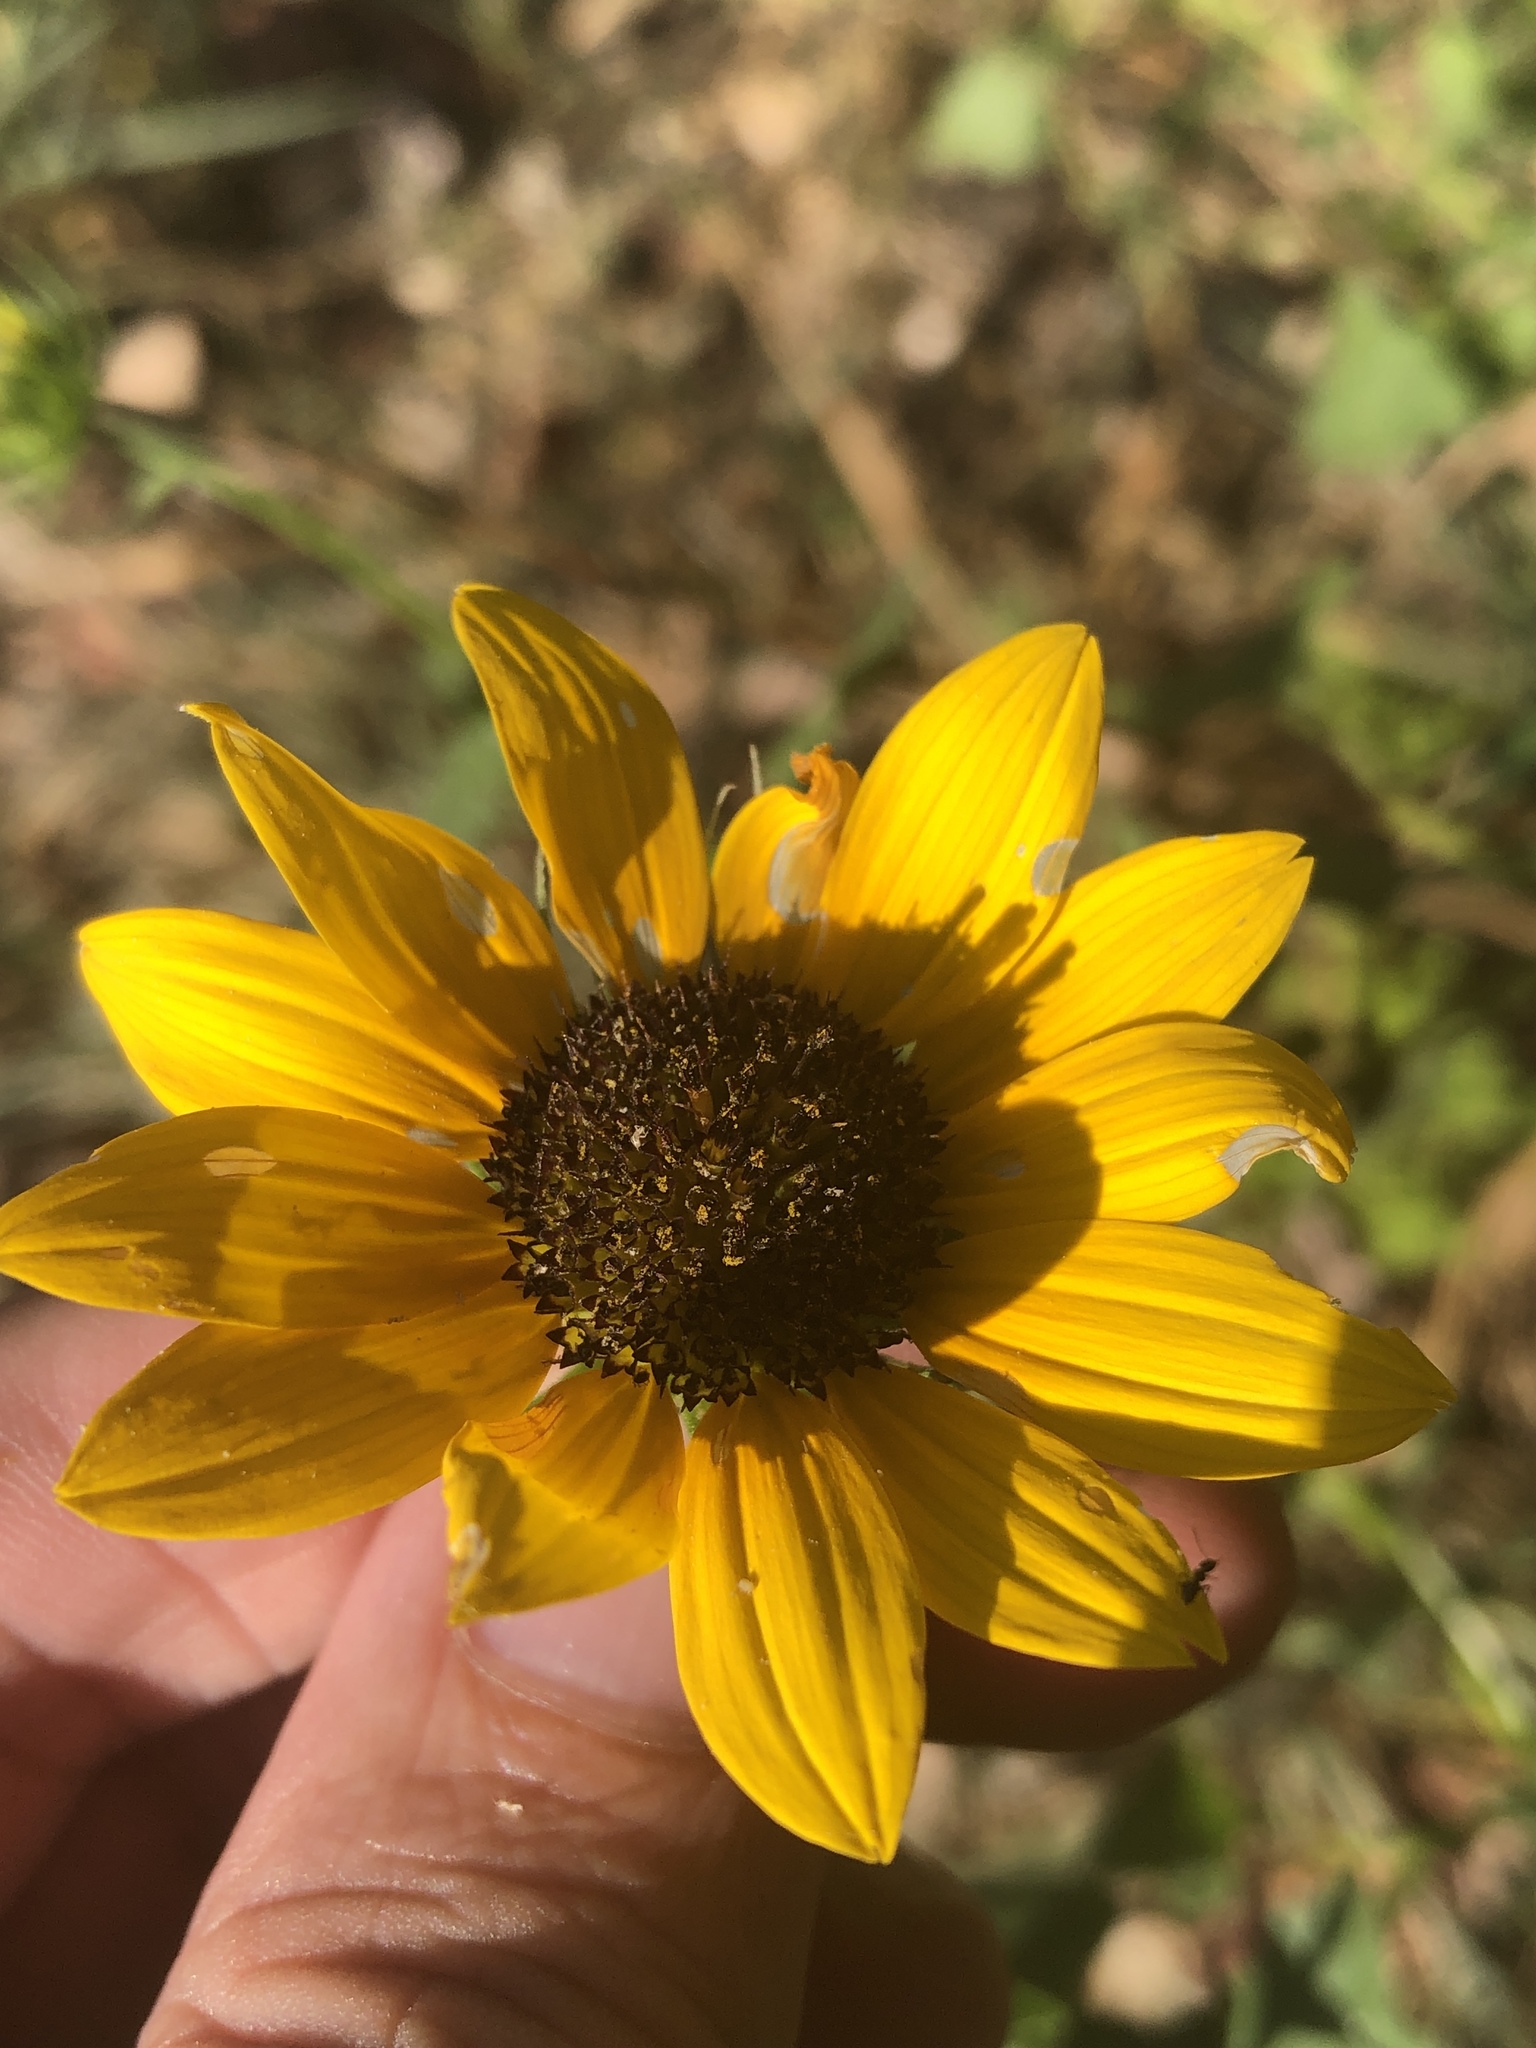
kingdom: Plantae
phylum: Tracheophyta
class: Magnoliopsida
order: Asterales
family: Asteraceae
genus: Helianthus
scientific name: Helianthus debilis
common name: Weak sunflower
